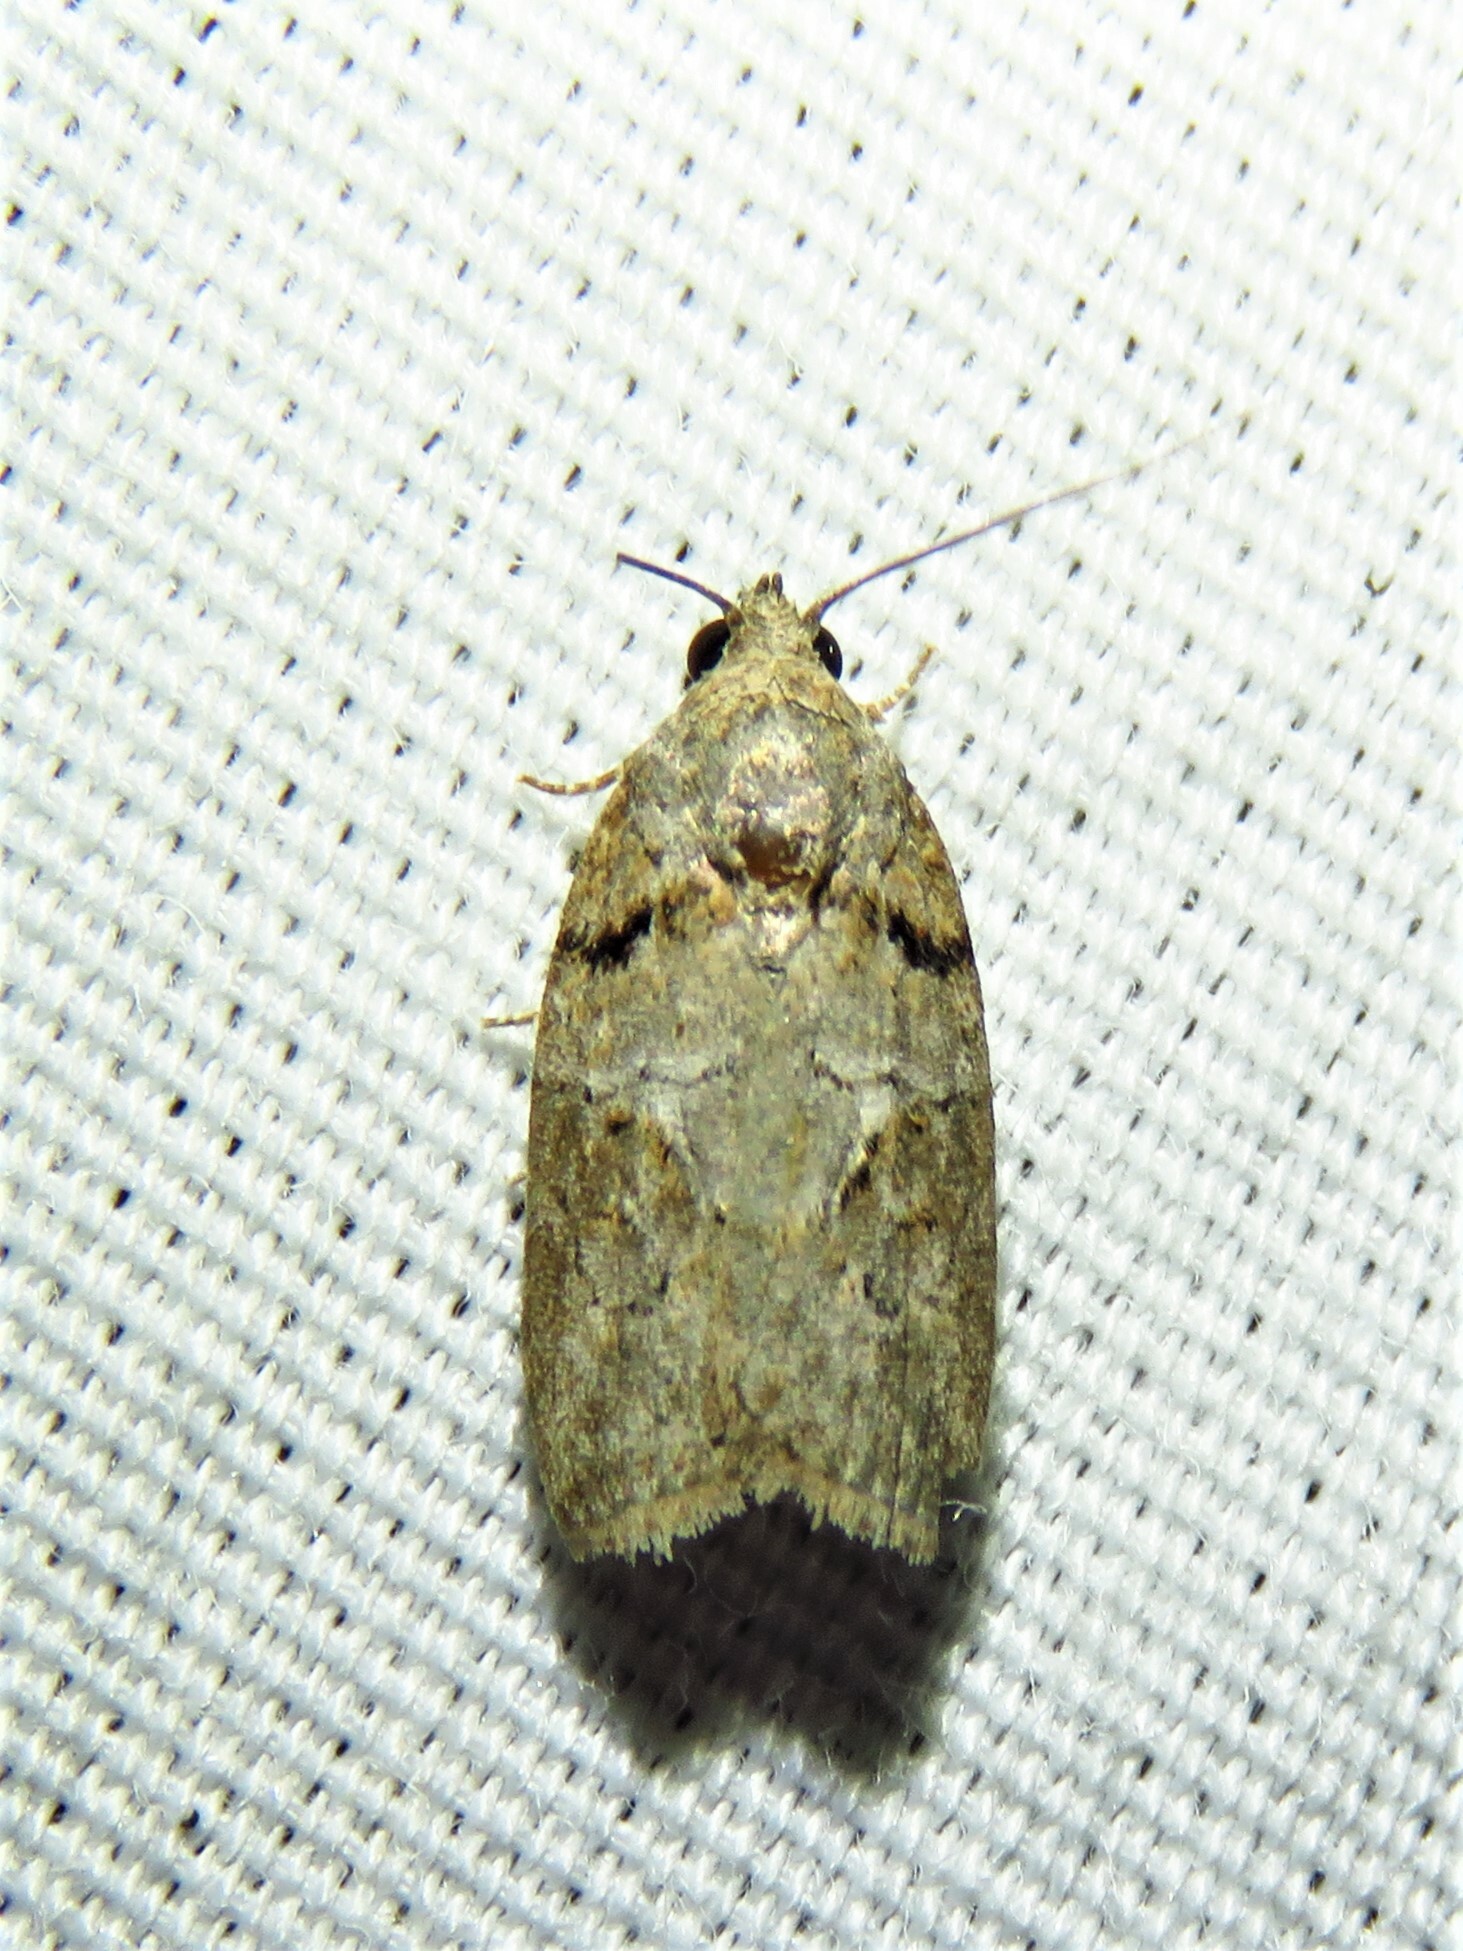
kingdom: Animalia
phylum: Arthropoda
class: Insecta
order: Lepidoptera
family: Nolidae
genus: Garella
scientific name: Garella nilotica
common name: Black-olive caterpillar moth
